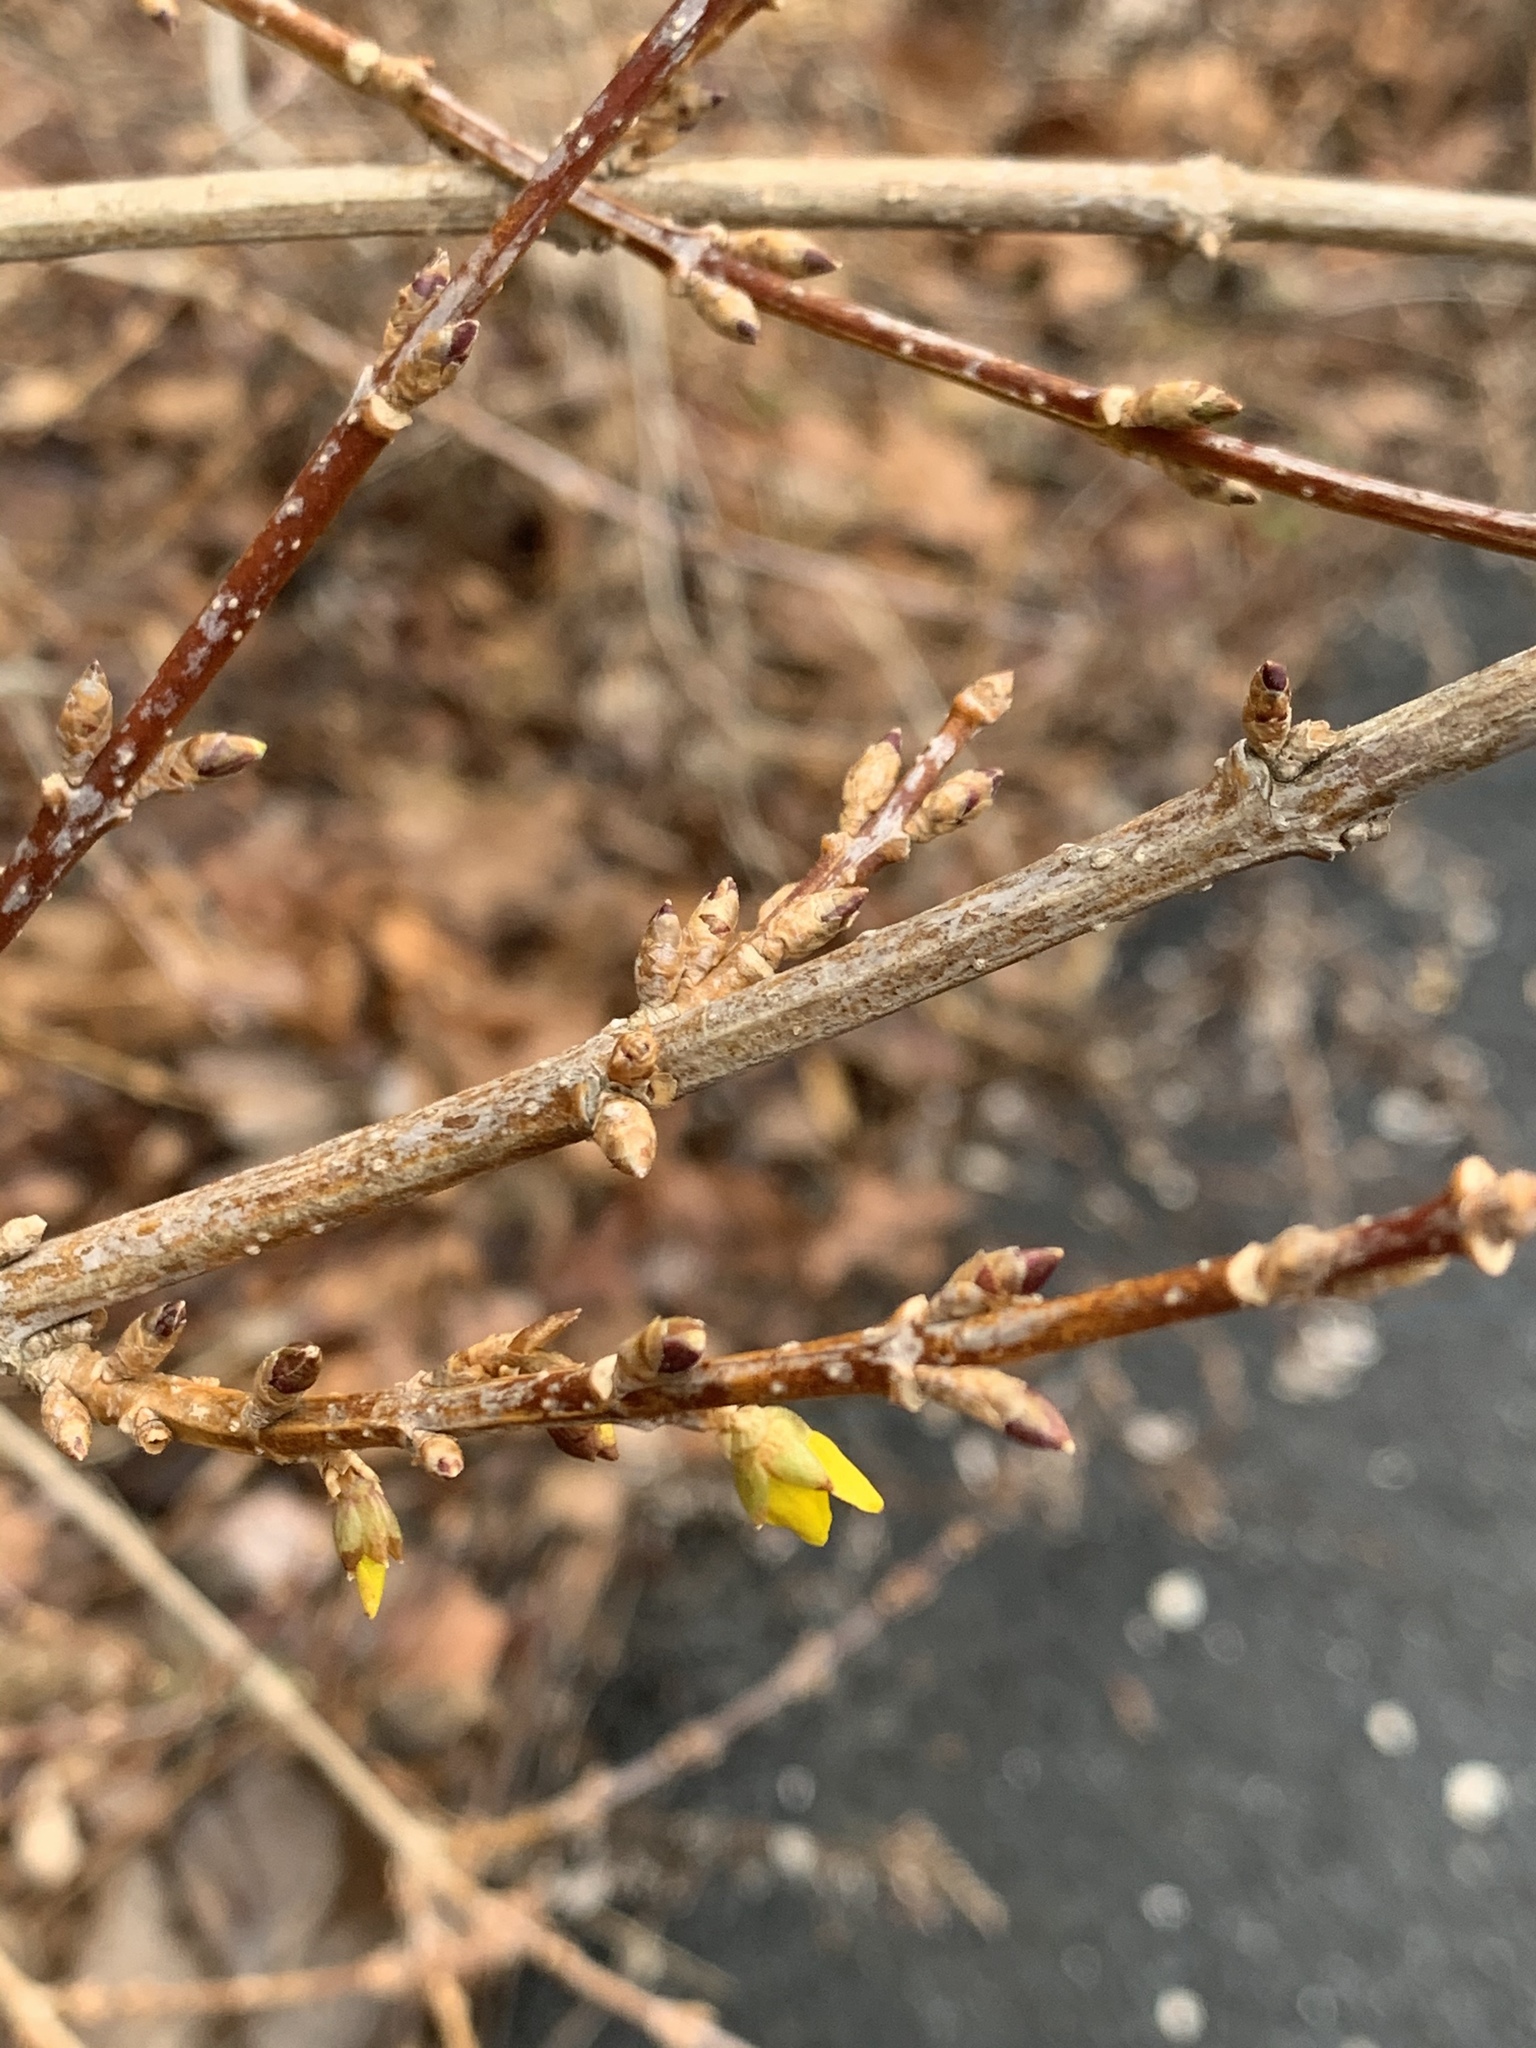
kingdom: Plantae
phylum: Tracheophyta
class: Magnoliopsida
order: Lamiales
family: Oleaceae
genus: Forsythia
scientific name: Forsythia
